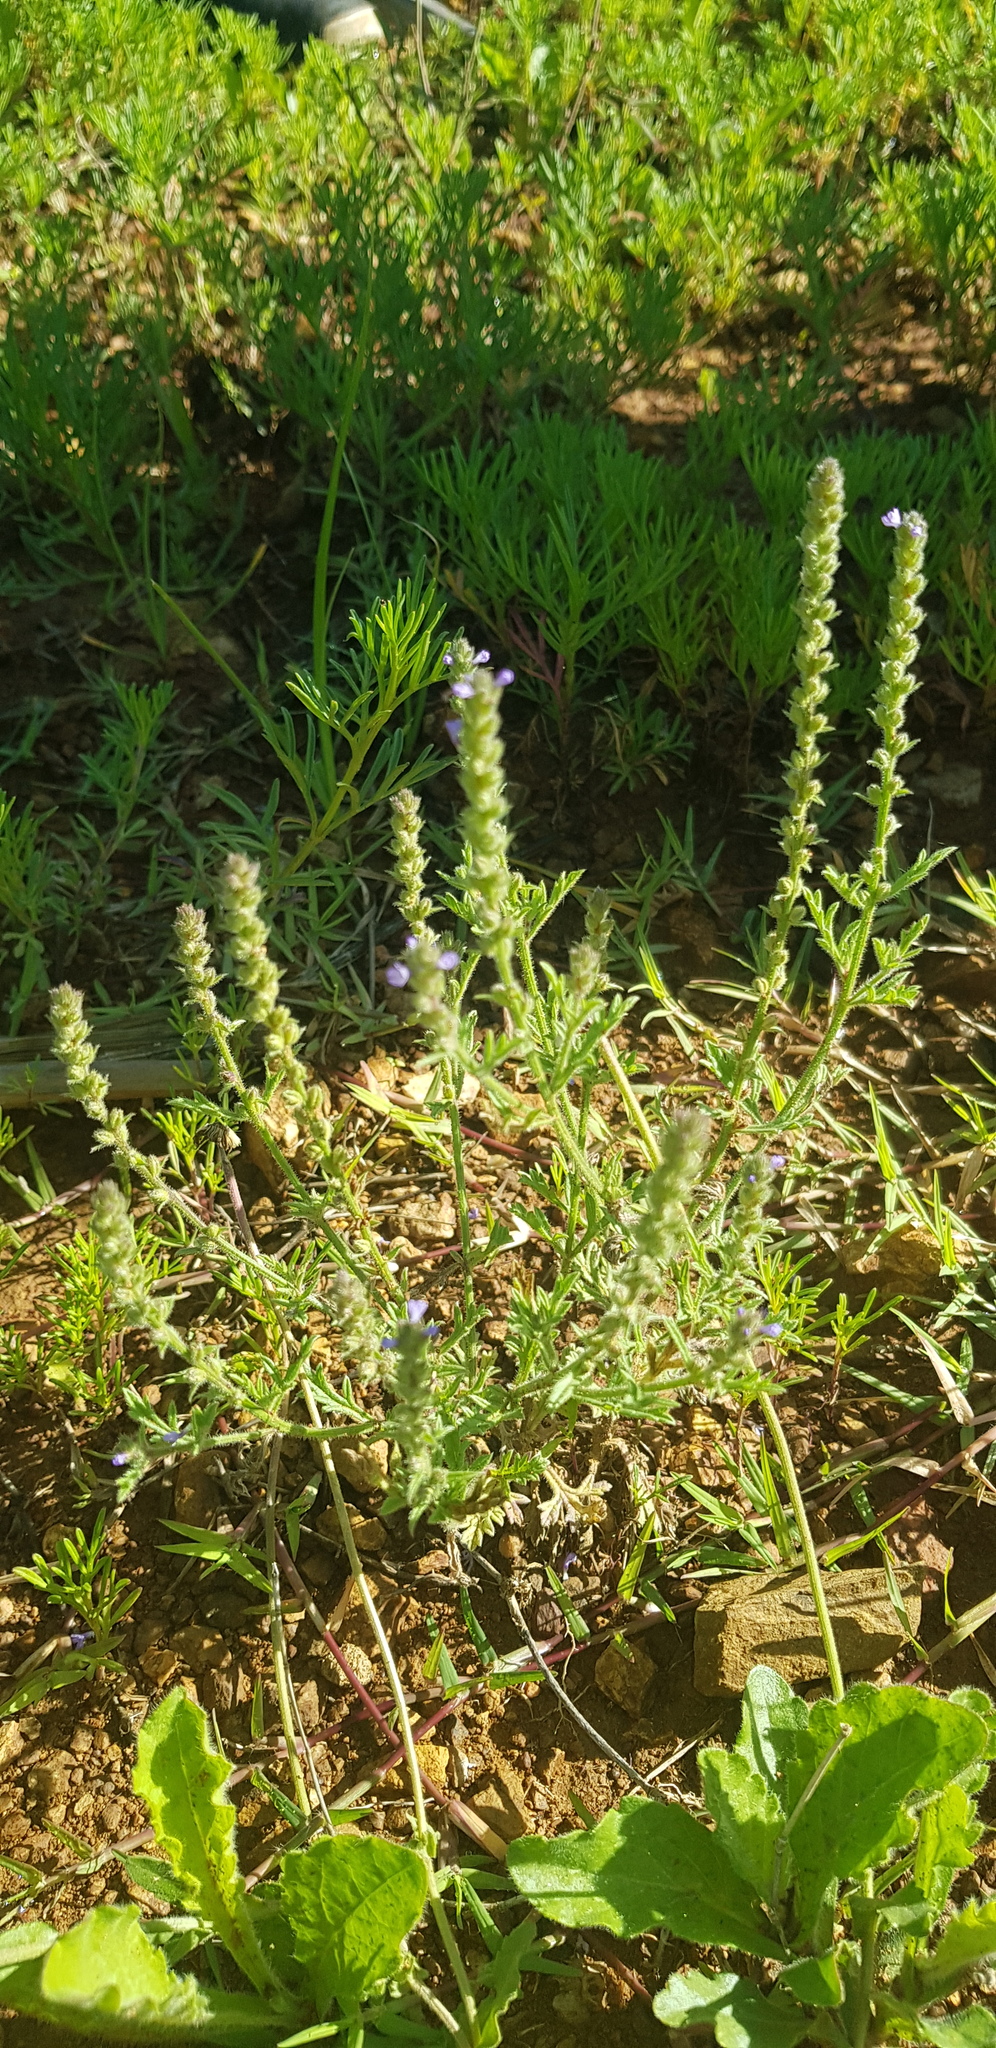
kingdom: Plantae
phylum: Tracheophyta
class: Magnoliopsida
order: Lamiales
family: Verbenaceae
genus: Verbena
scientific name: Verbena canescens
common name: Gray vervain
